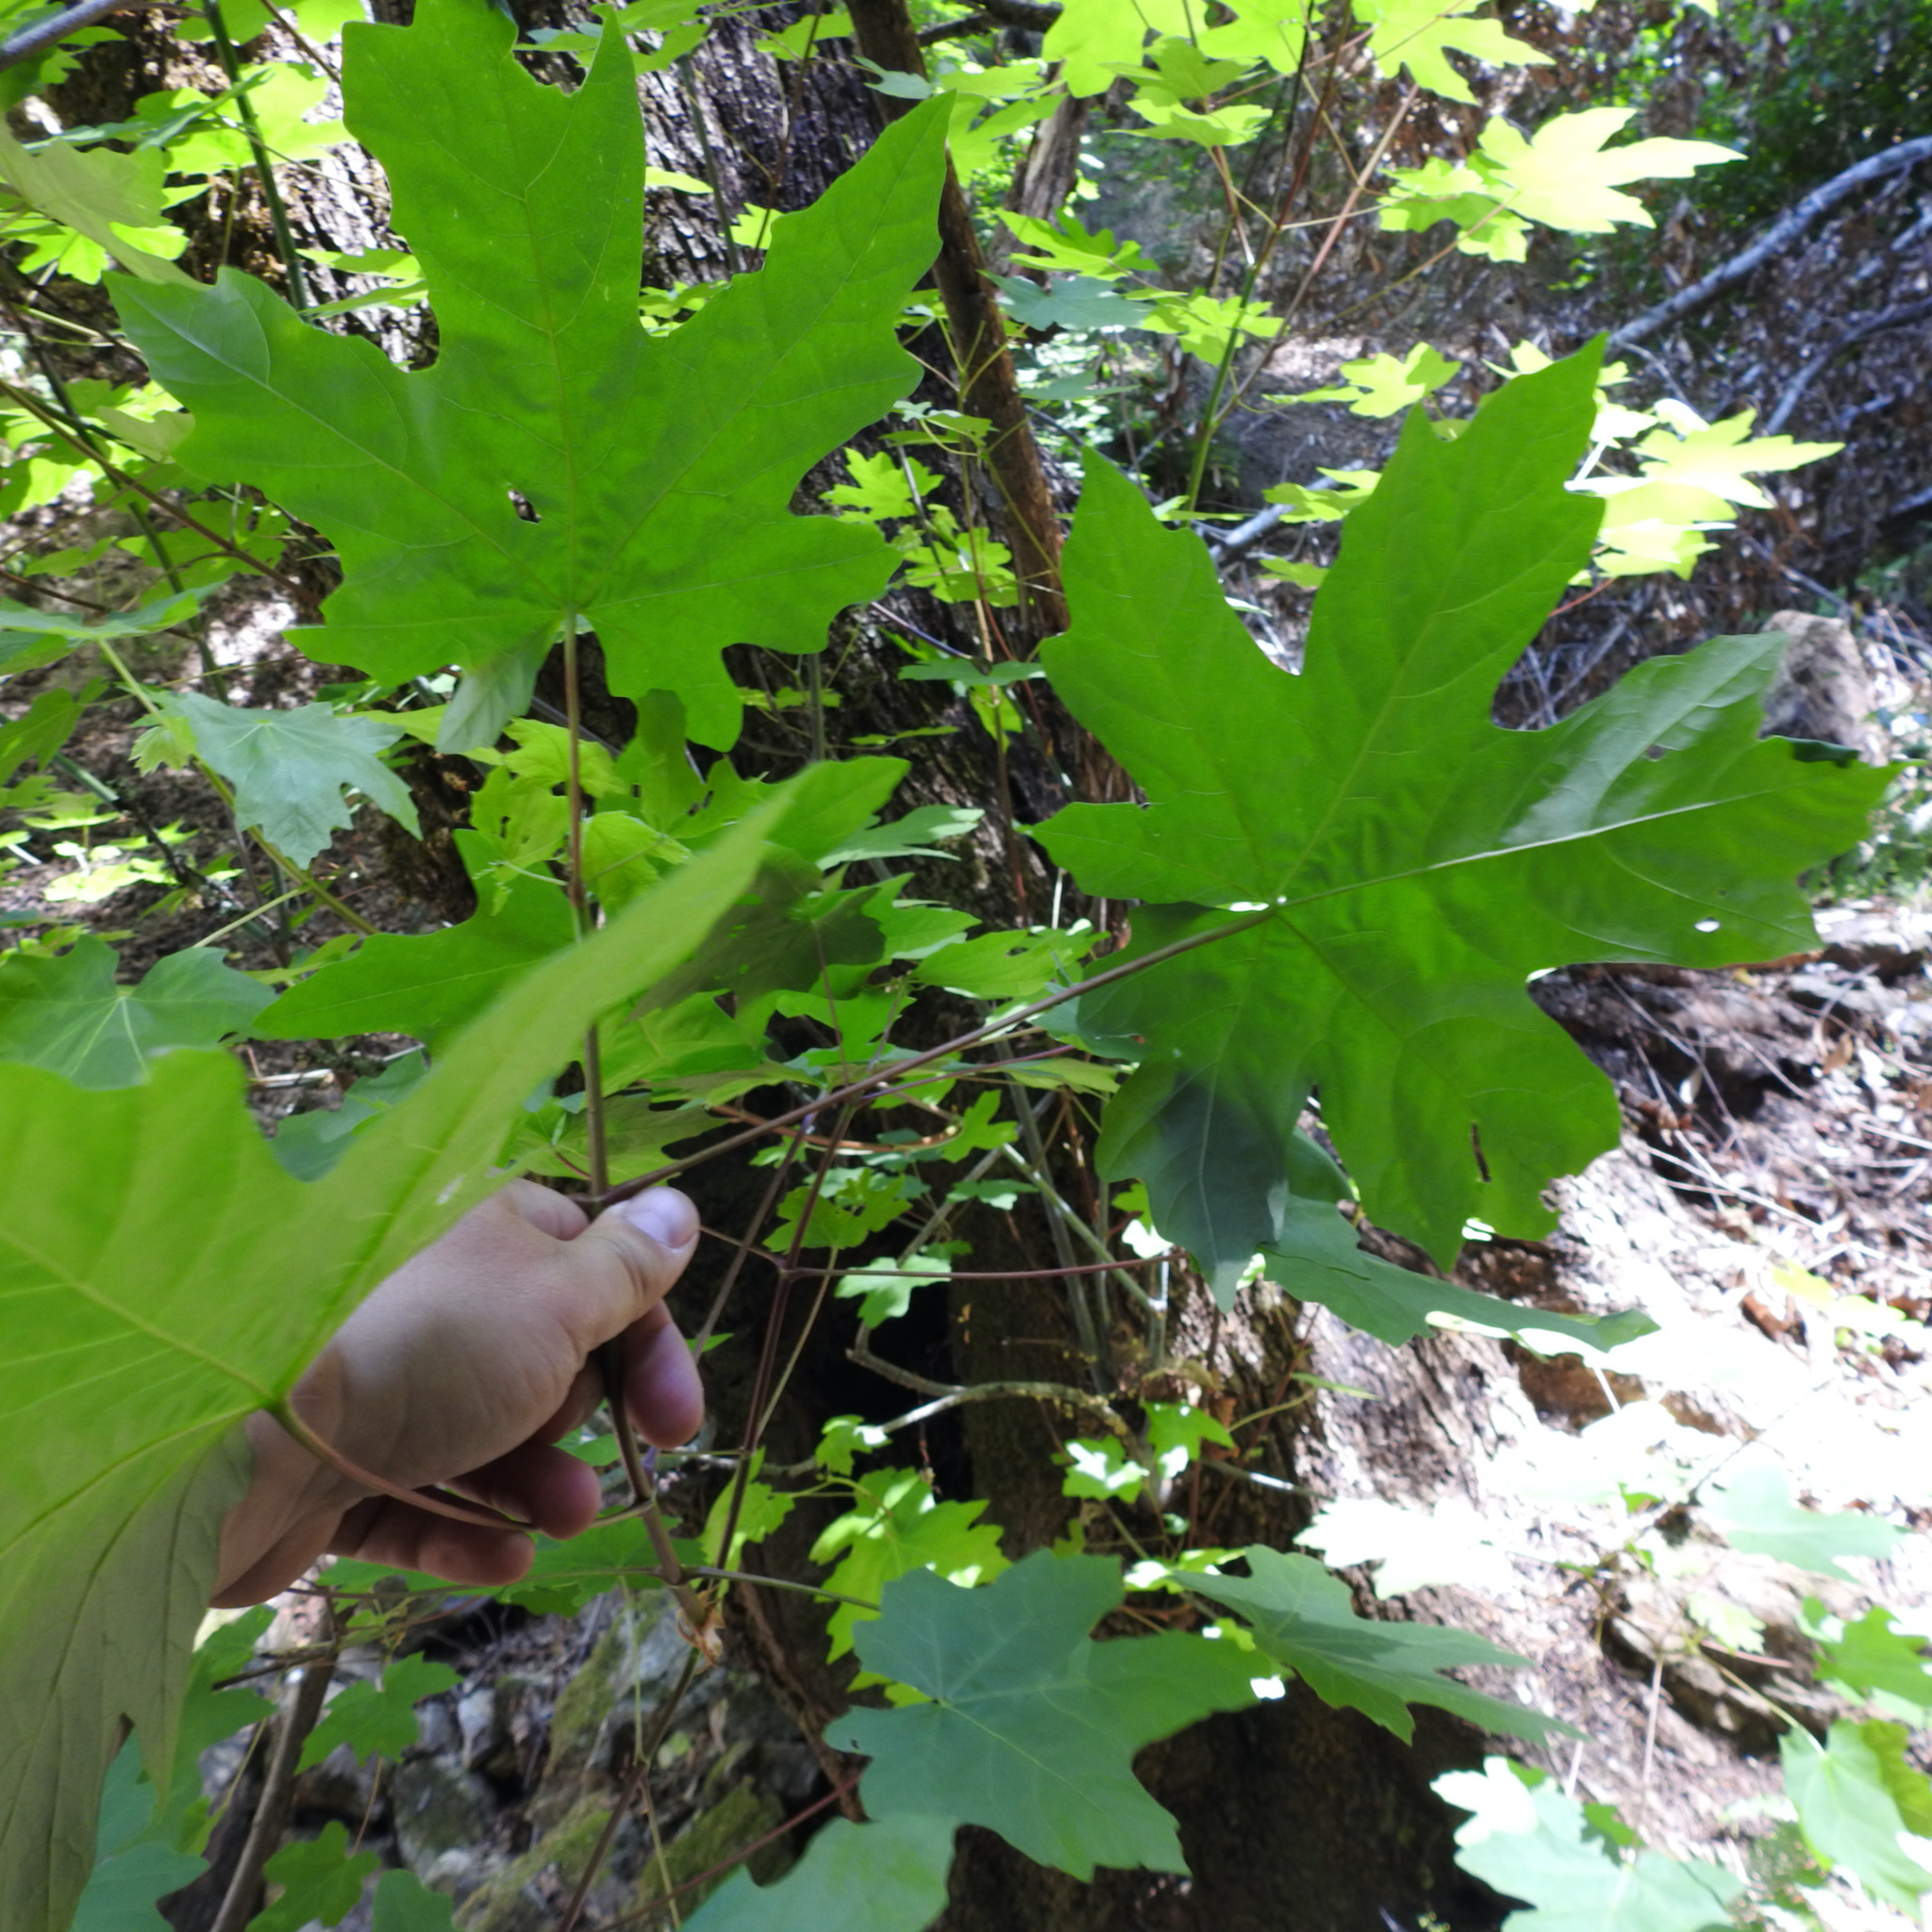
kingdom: Plantae
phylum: Tracheophyta
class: Magnoliopsida
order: Sapindales
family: Sapindaceae
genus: Acer
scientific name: Acer macrophyllum
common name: Oregon maple
